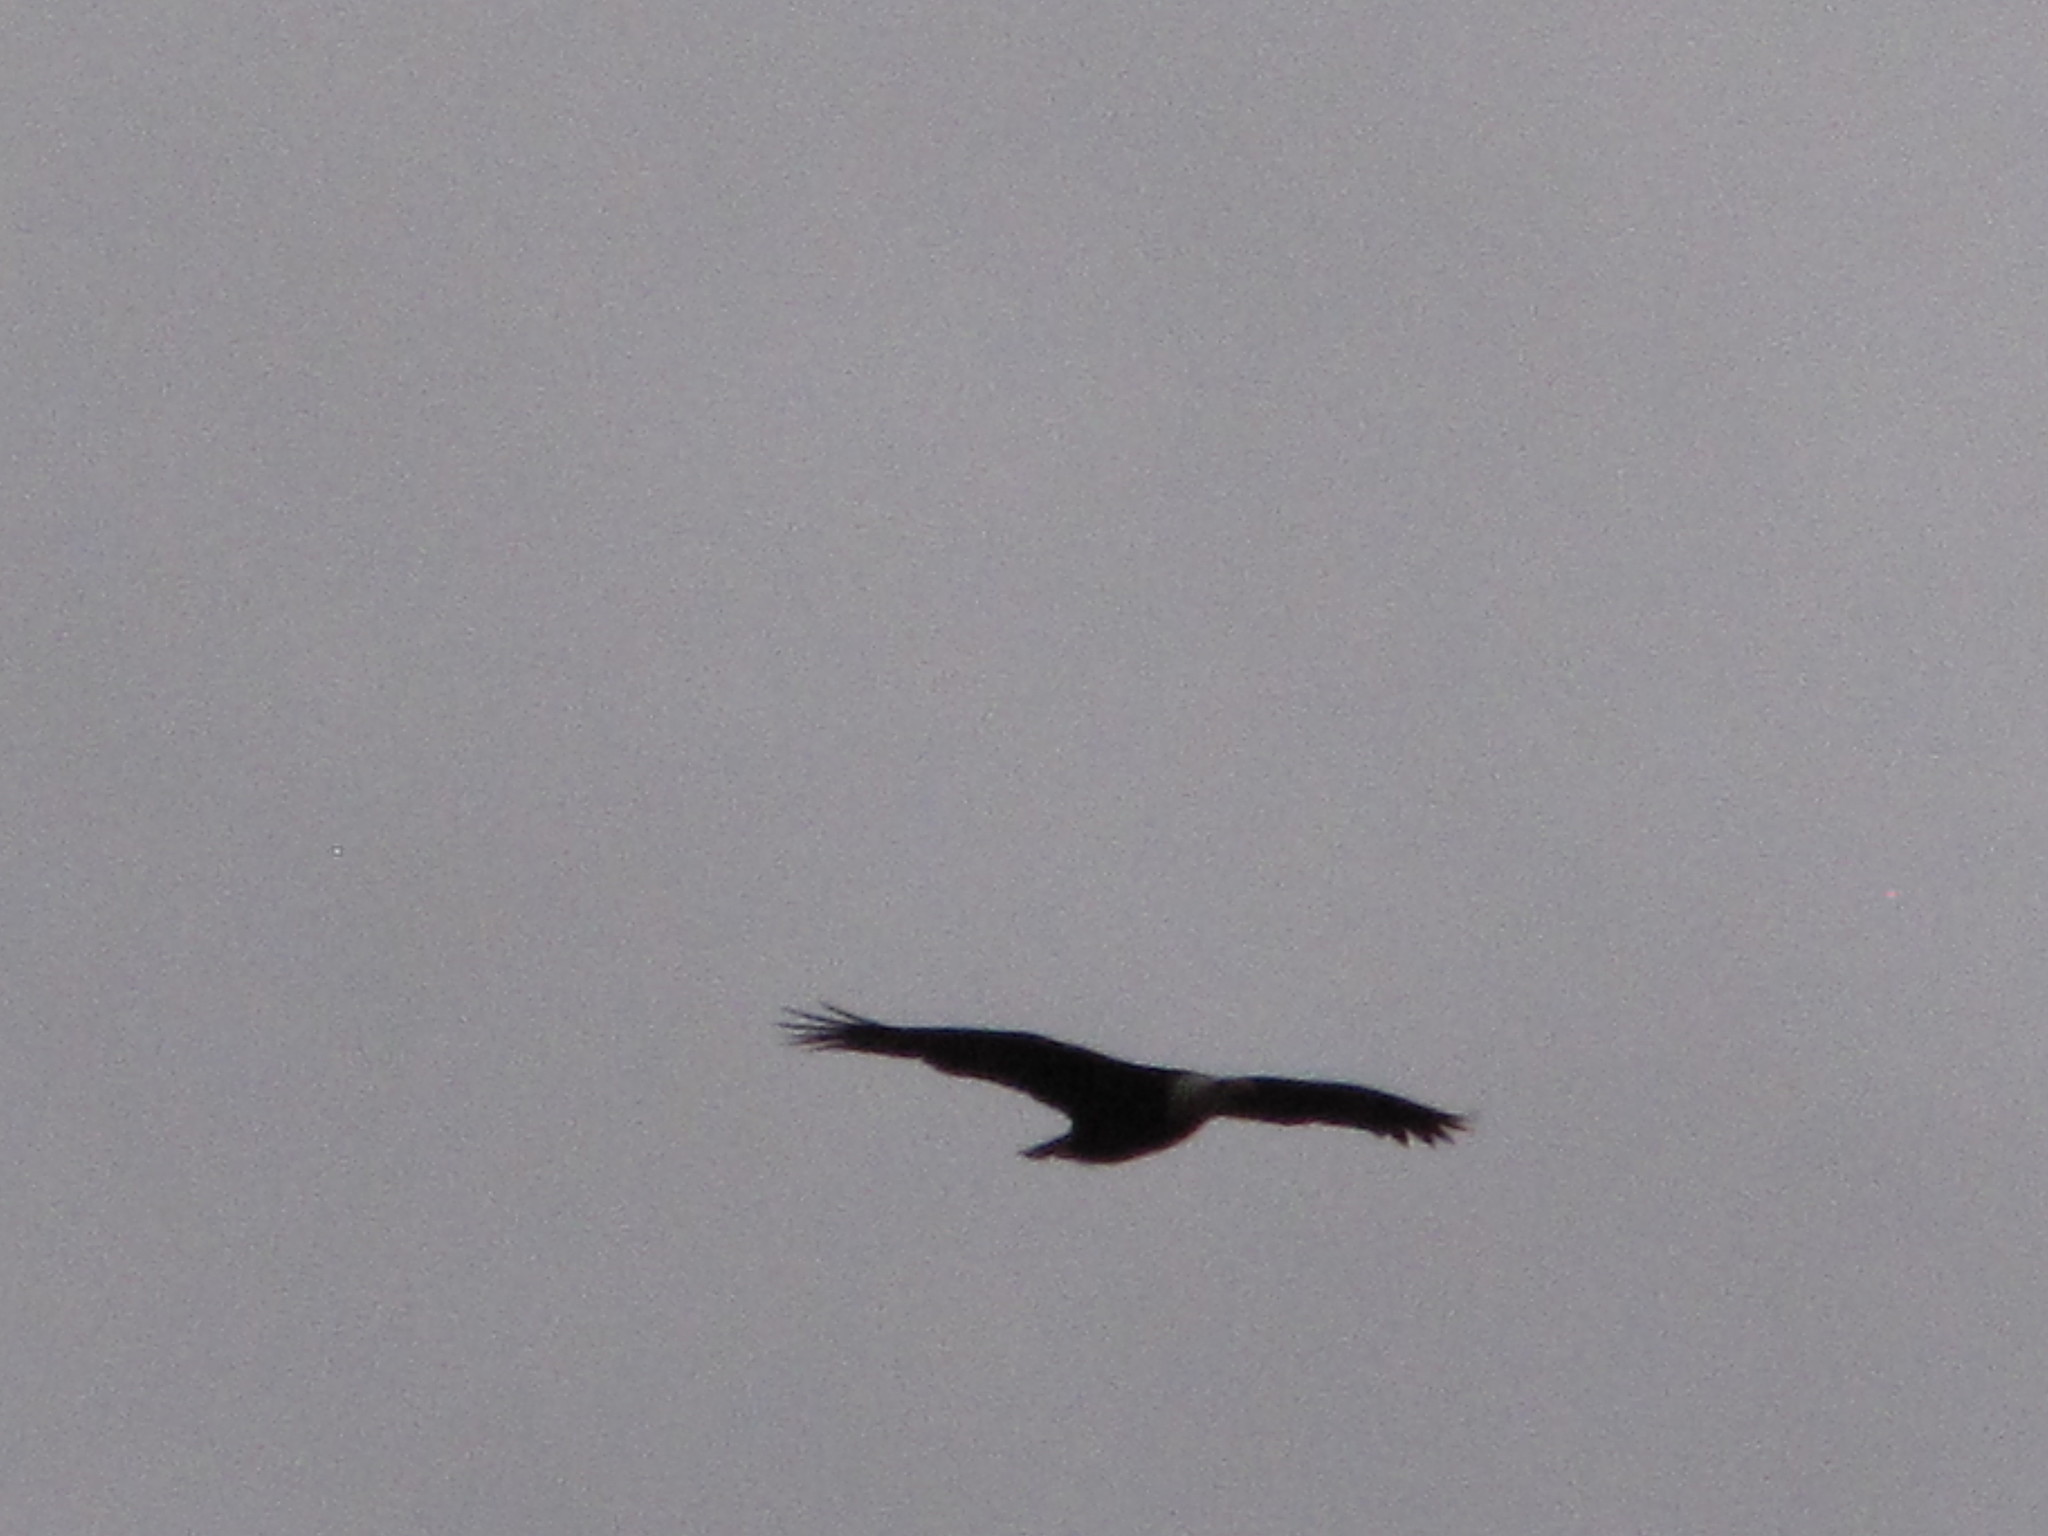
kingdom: Animalia
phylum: Chordata
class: Aves
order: Accipitriformes
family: Accipitridae
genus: Haliaeetus
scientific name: Haliaeetus leucocephalus
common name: Bald eagle
